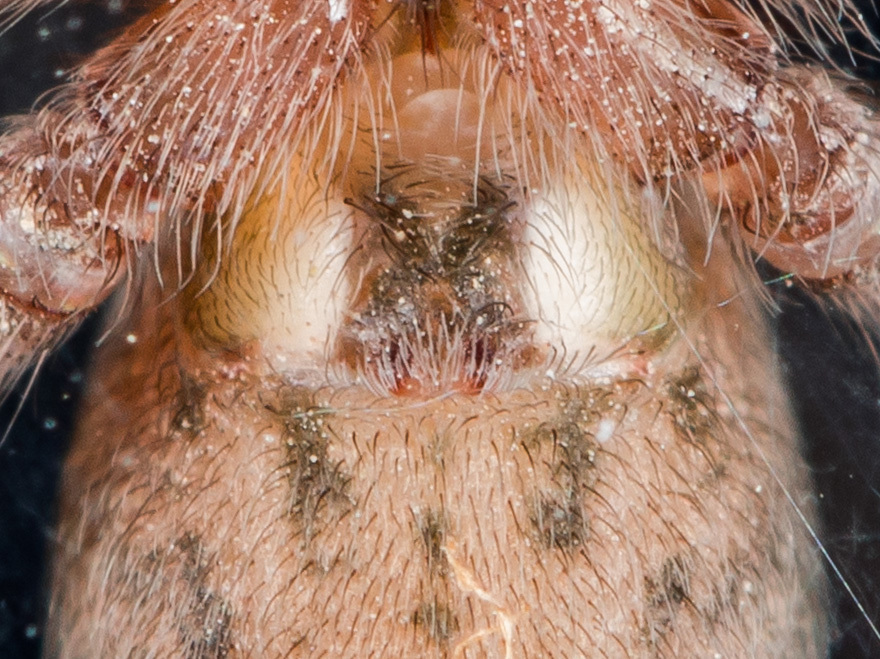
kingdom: Animalia
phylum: Arthropoda
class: Arachnida
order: Araneae
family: Agelenidae
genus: Tegenaria
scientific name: Tegenaria domestica
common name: Barn funnel weaver
